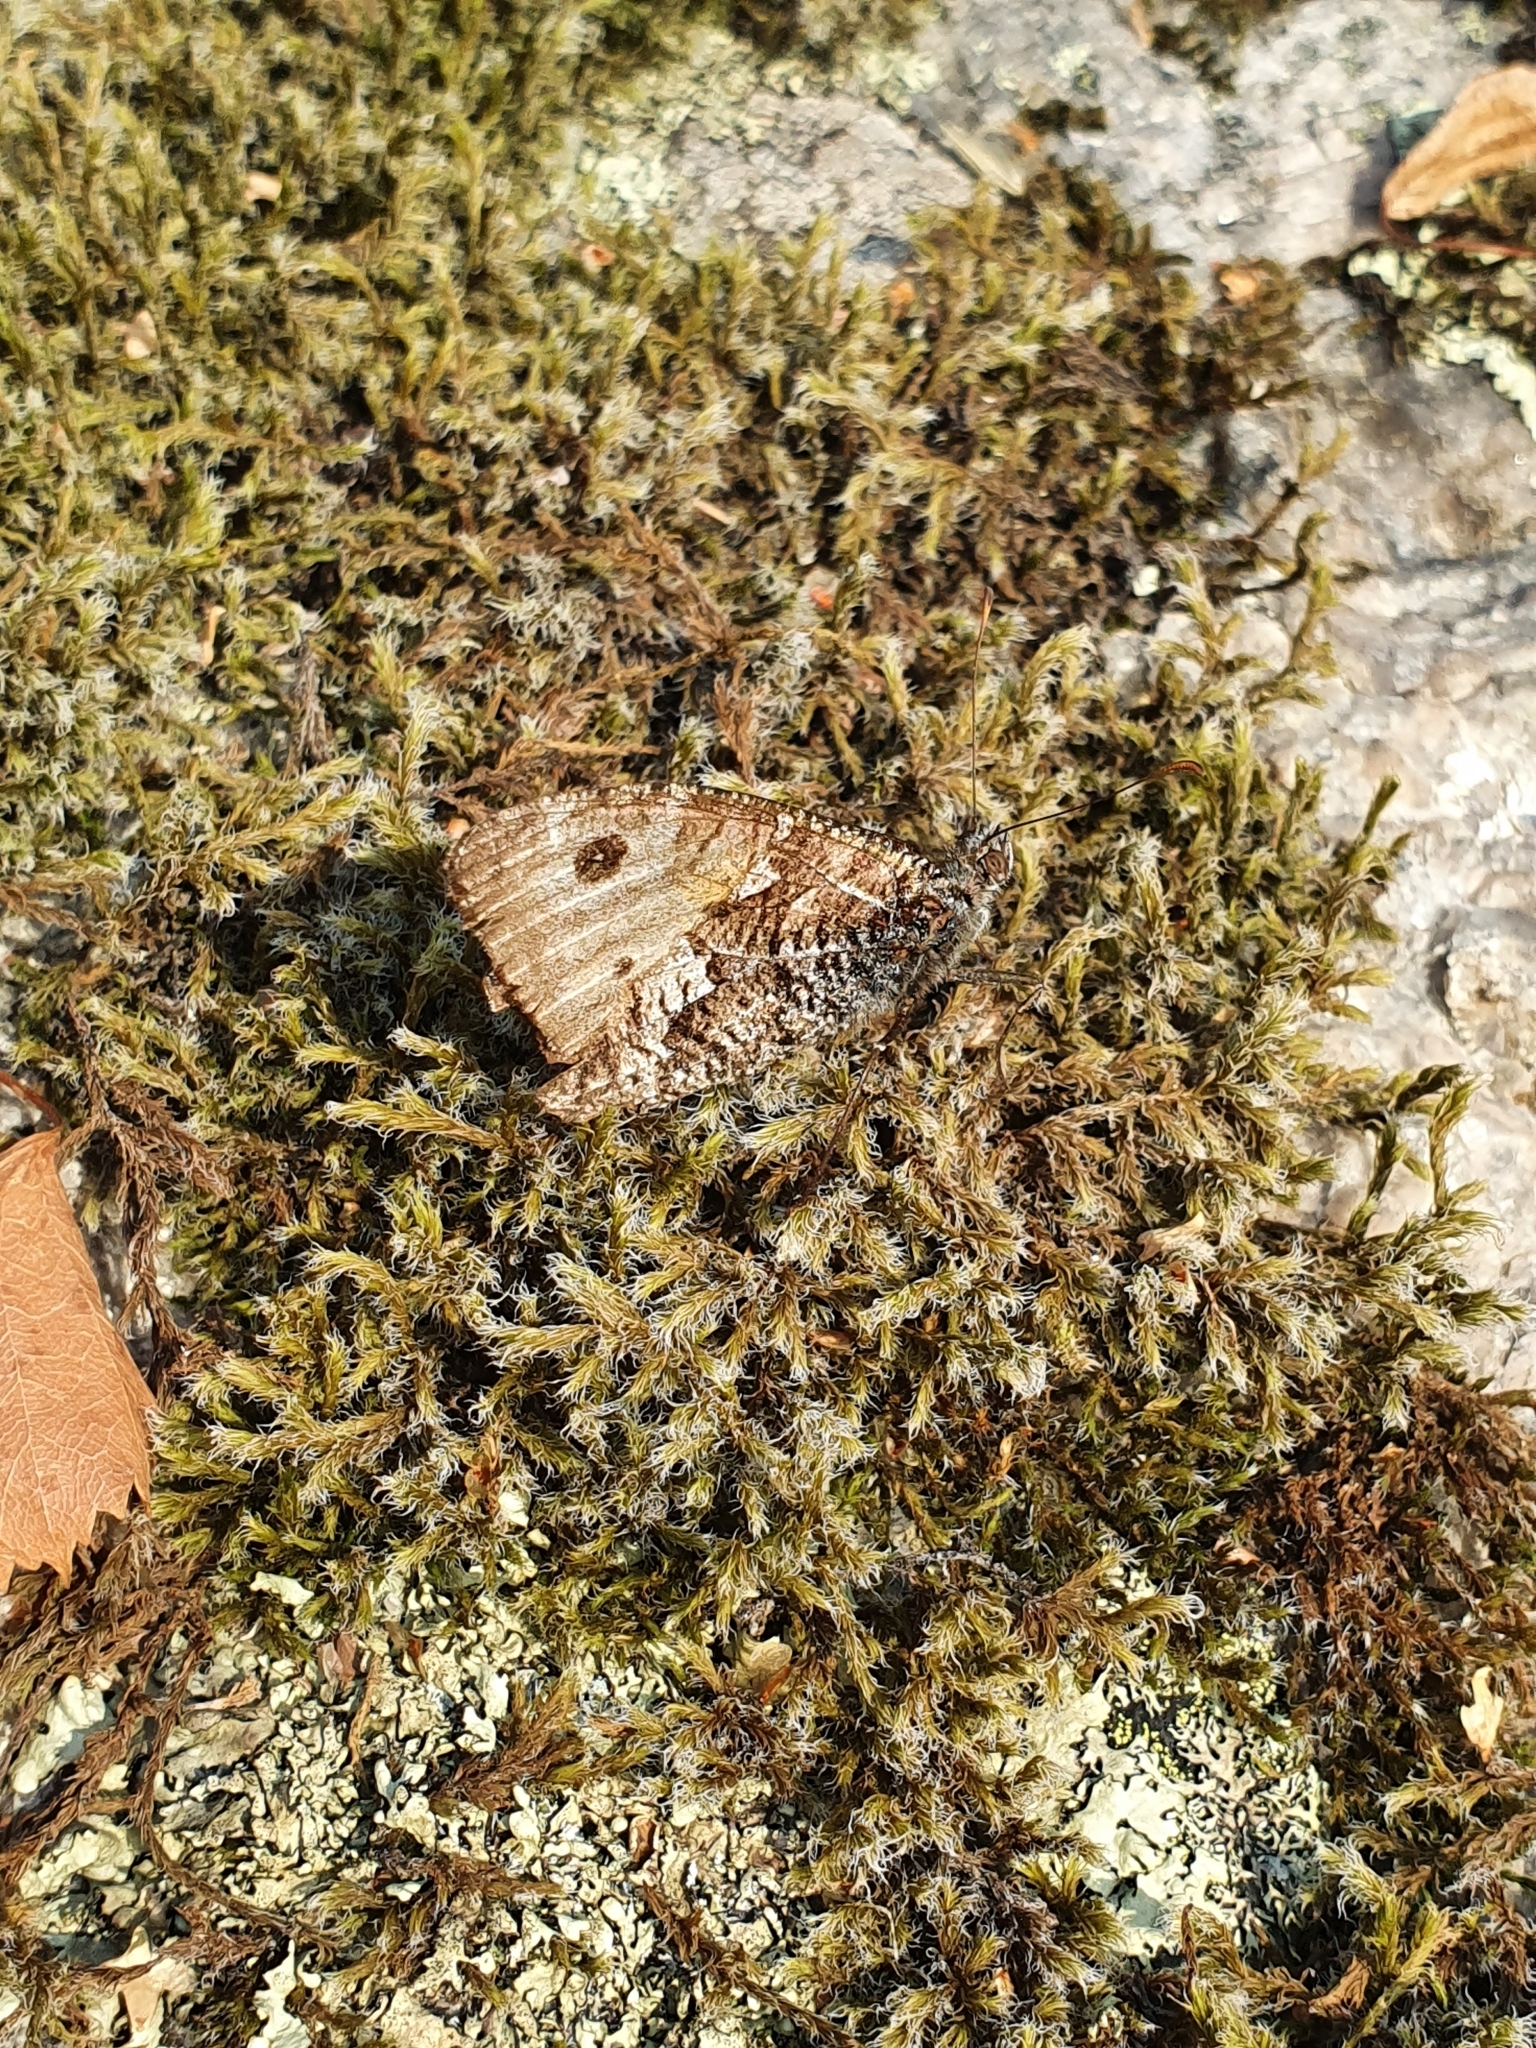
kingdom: Animalia
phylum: Arthropoda
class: Insecta
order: Lepidoptera
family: Nymphalidae
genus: Hipparchia
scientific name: Hipparchia semele
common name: Grayling
